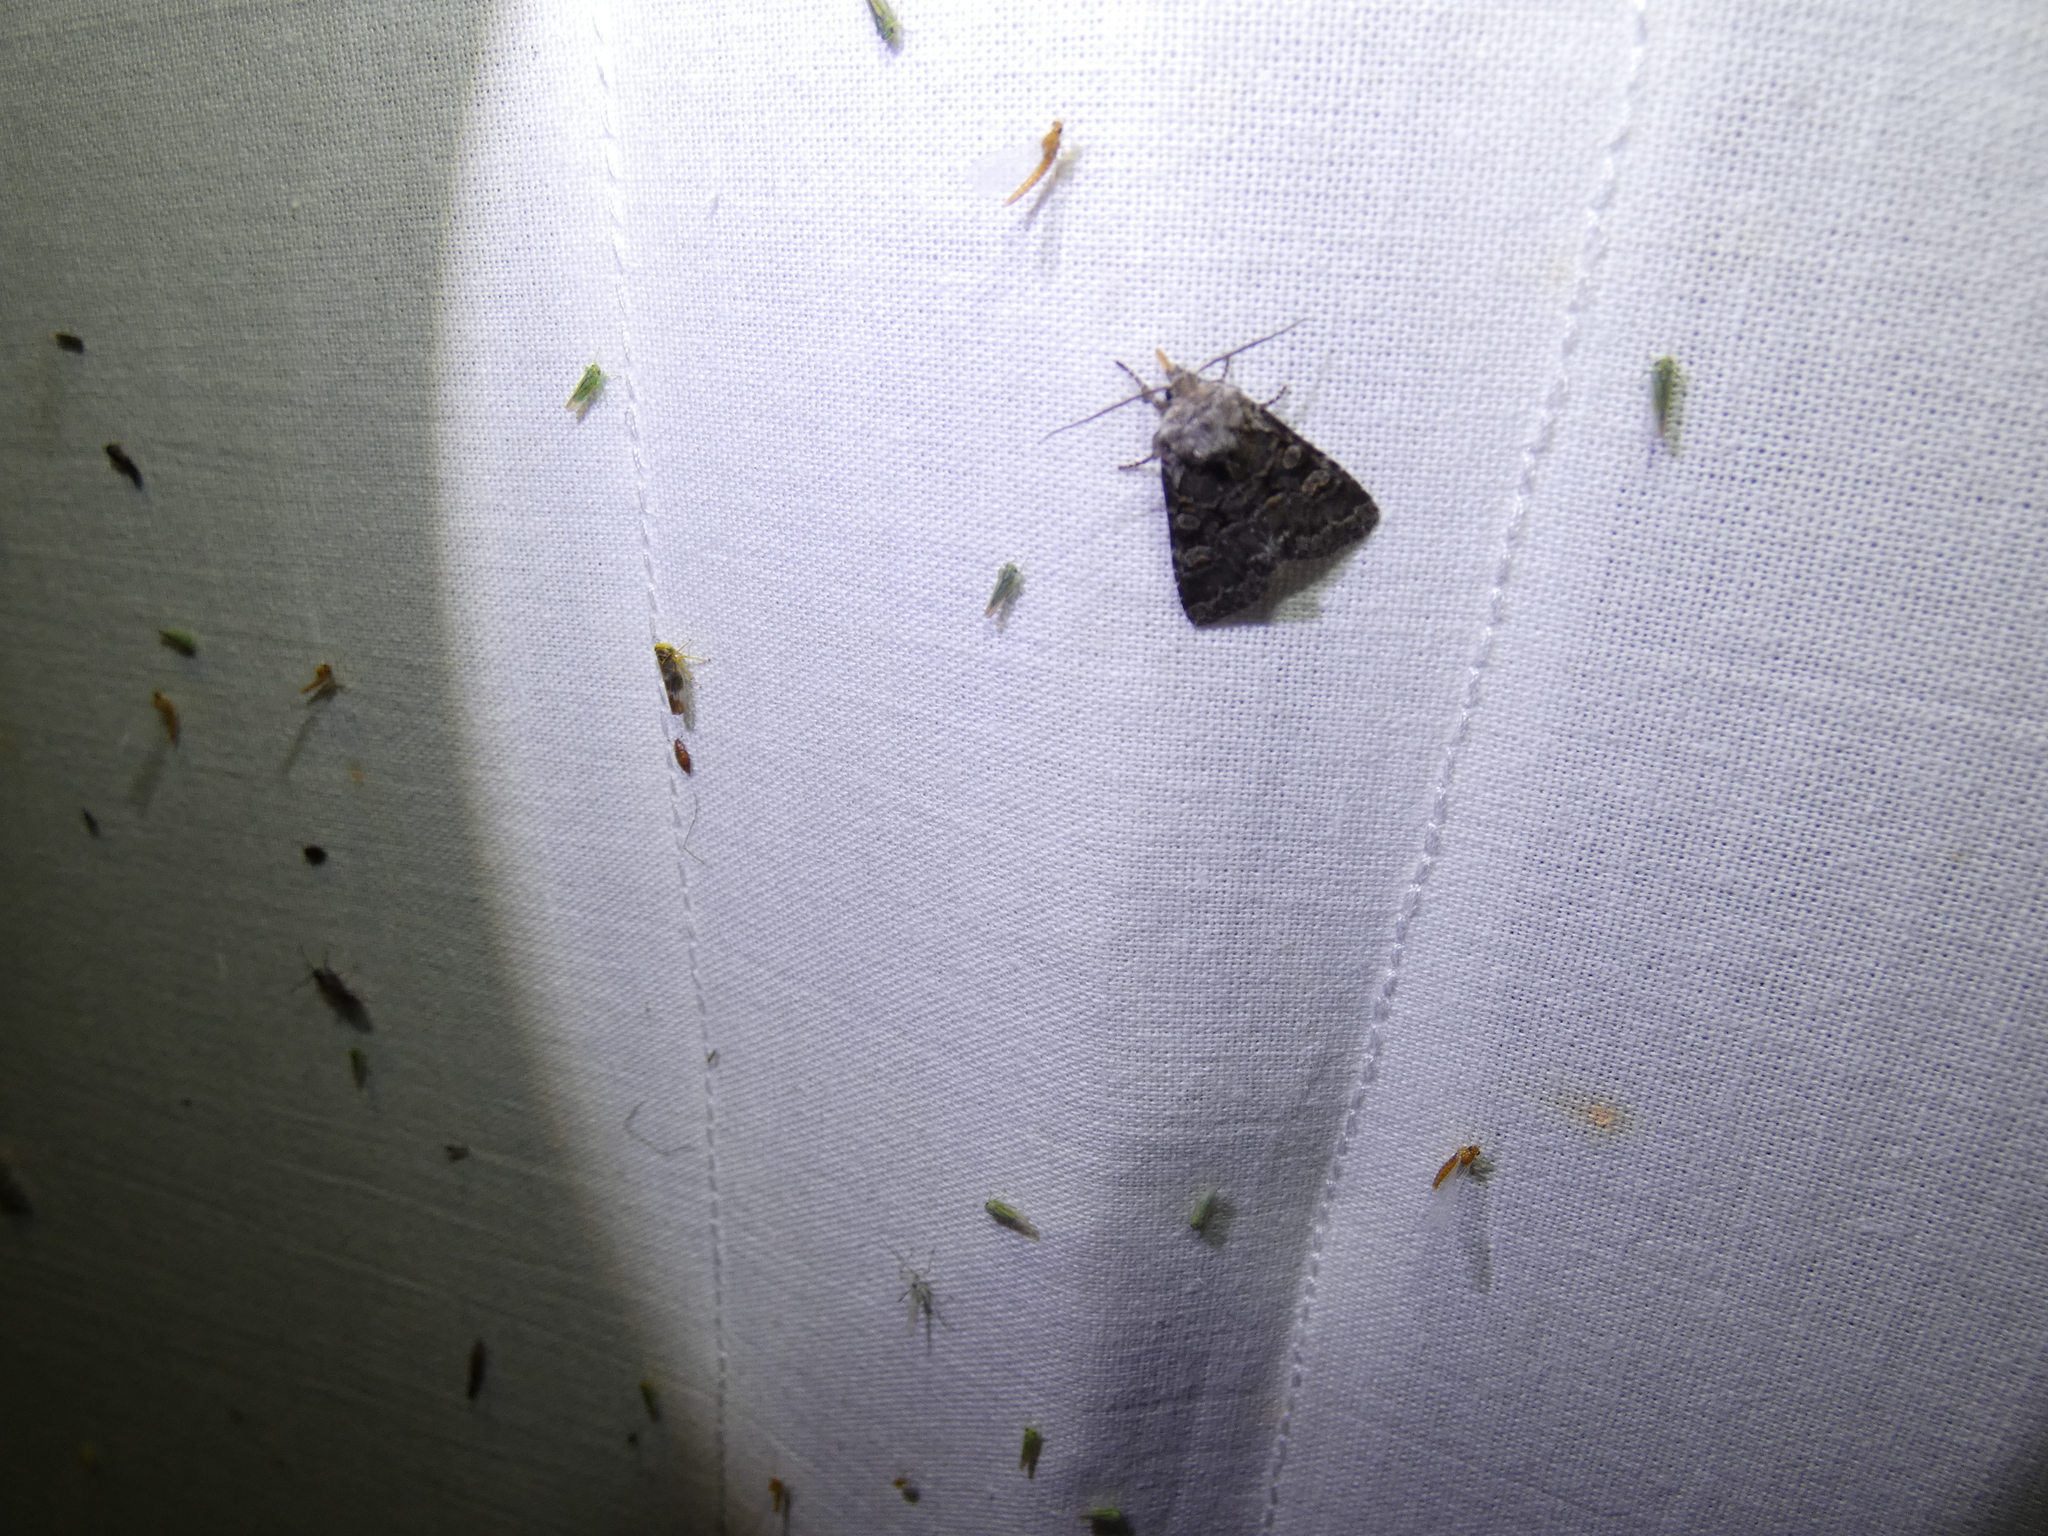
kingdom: Animalia
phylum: Arthropoda
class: Insecta
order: Lepidoptera
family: Noctuidae
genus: Brachylomia
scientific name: Brachylomia viminalis
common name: Minor shoulder-knot
